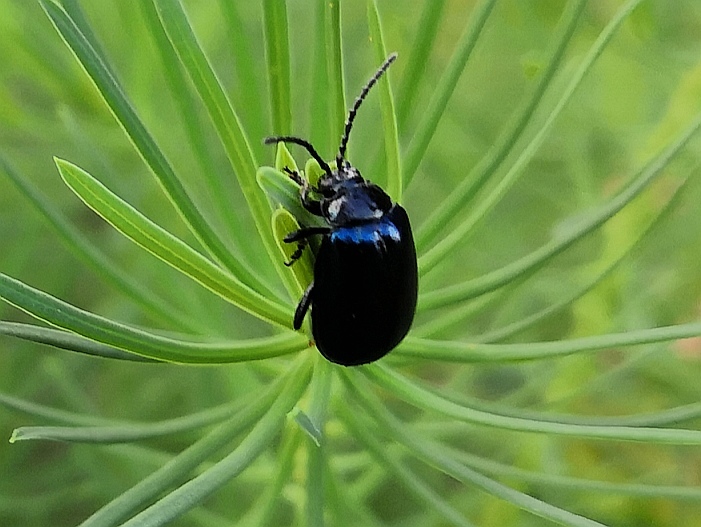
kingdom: Animalia
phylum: Arthropoda
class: Insecta
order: Coleoptera
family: Chrysomelidae
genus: Agelastica
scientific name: Agelastica alni
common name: Alder leaf beetle
